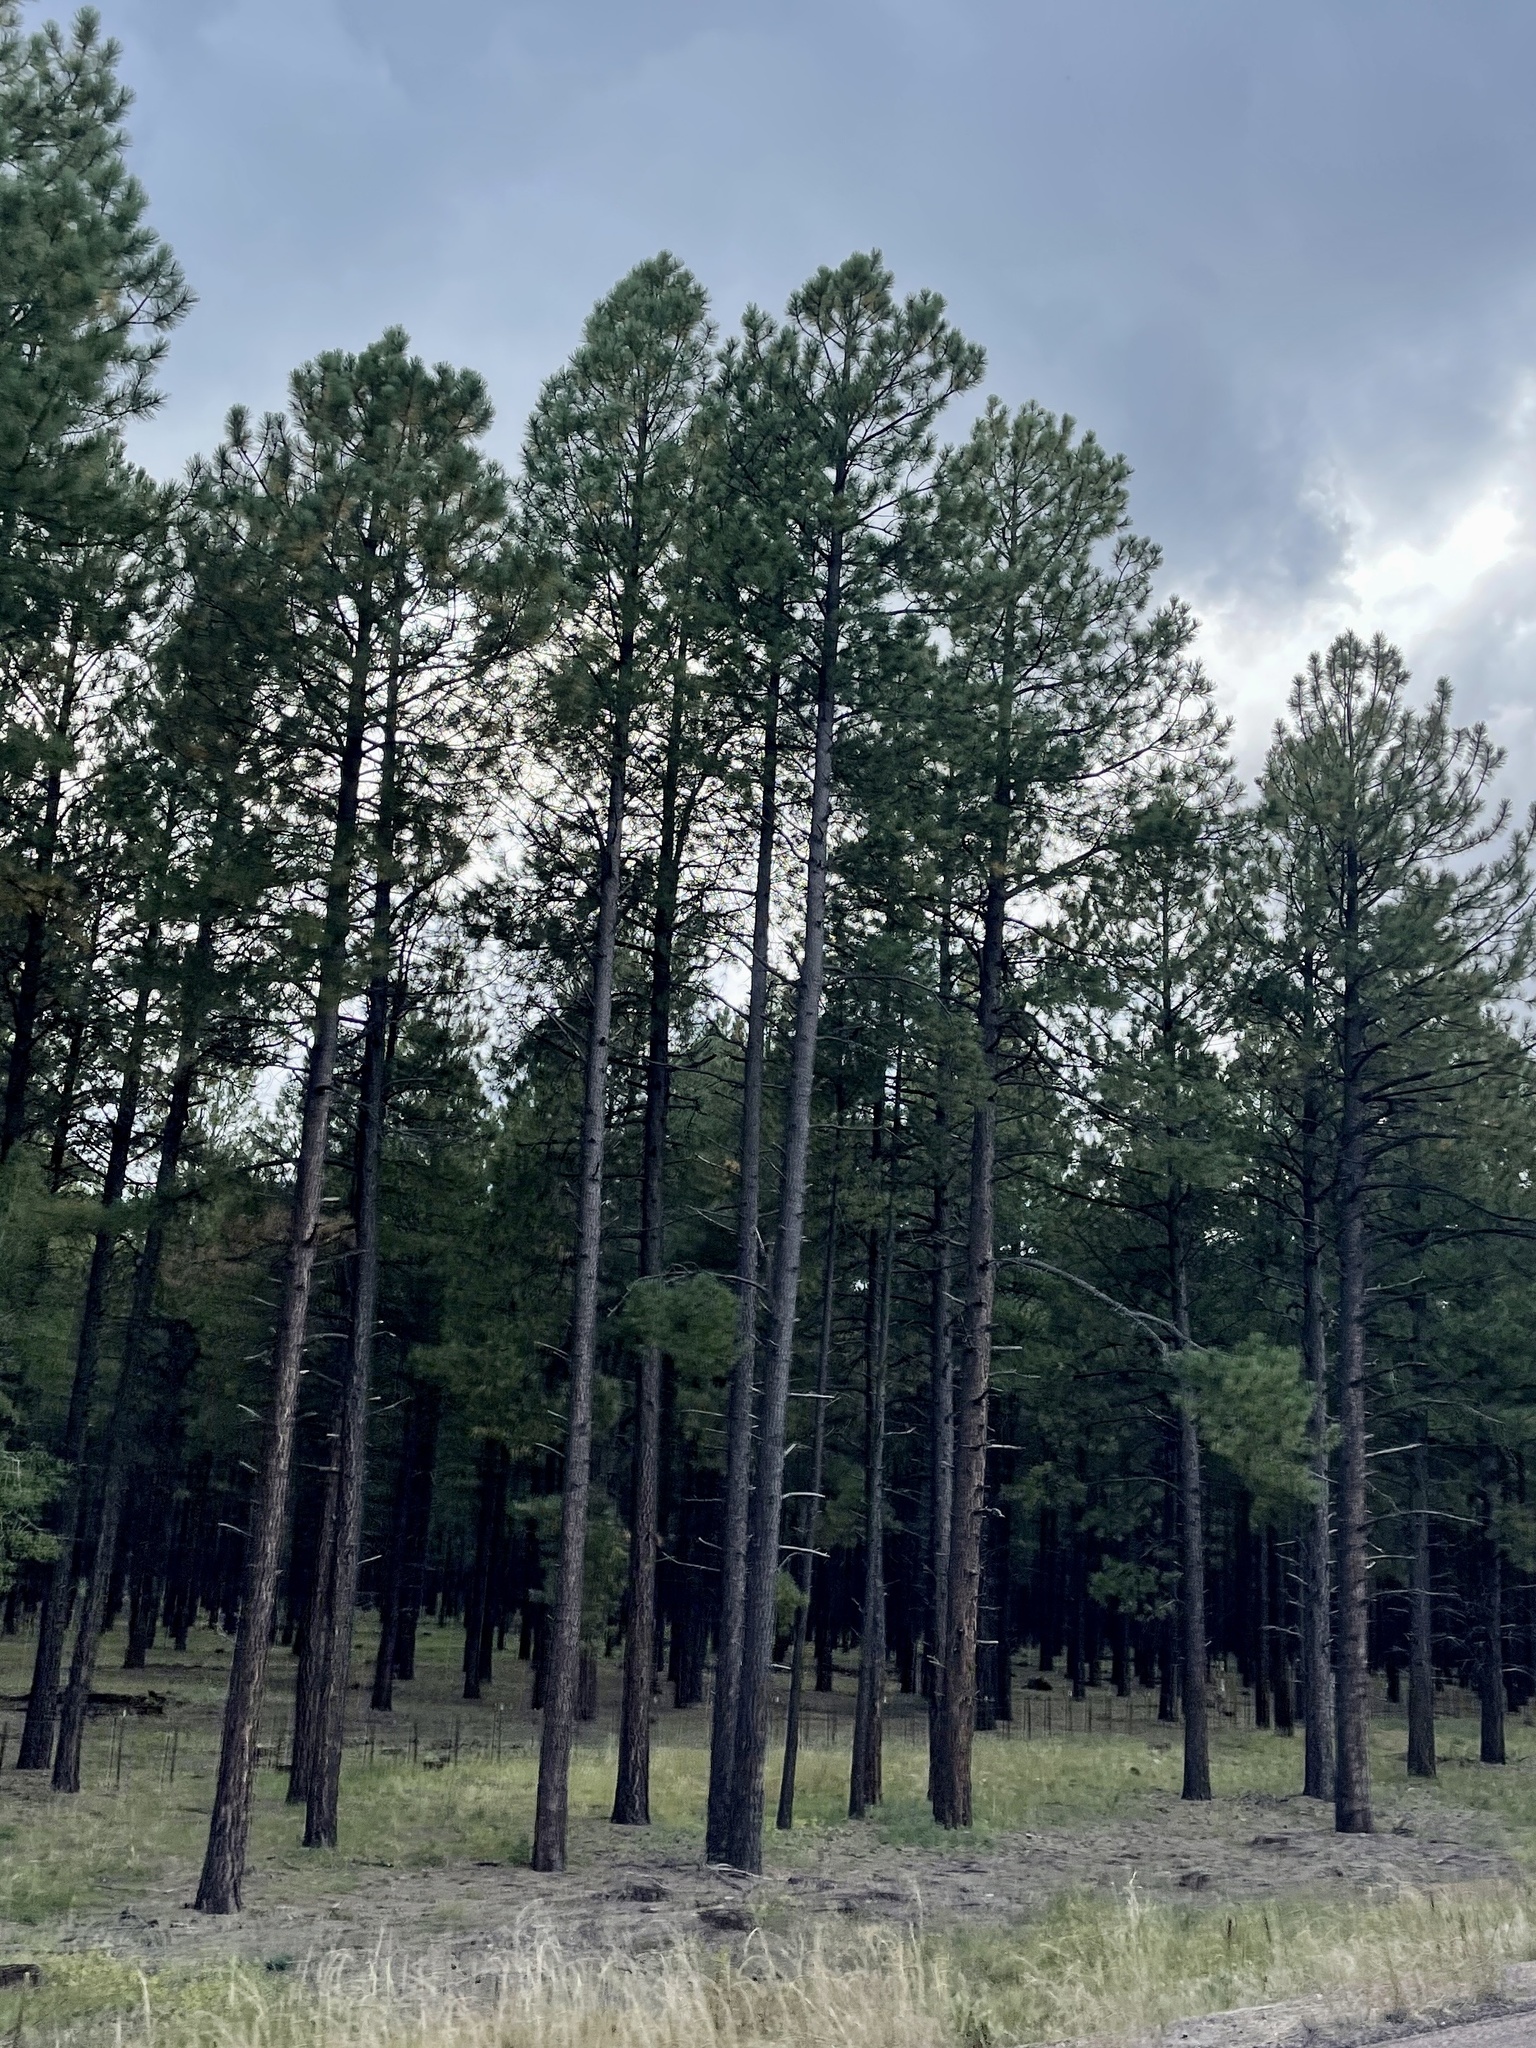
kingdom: Plantae
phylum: Tracheophyta
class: Pinopsida
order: Pinales
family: Pinaceae
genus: Pinus
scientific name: Pinus ponderosa
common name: Western yellow-pine
